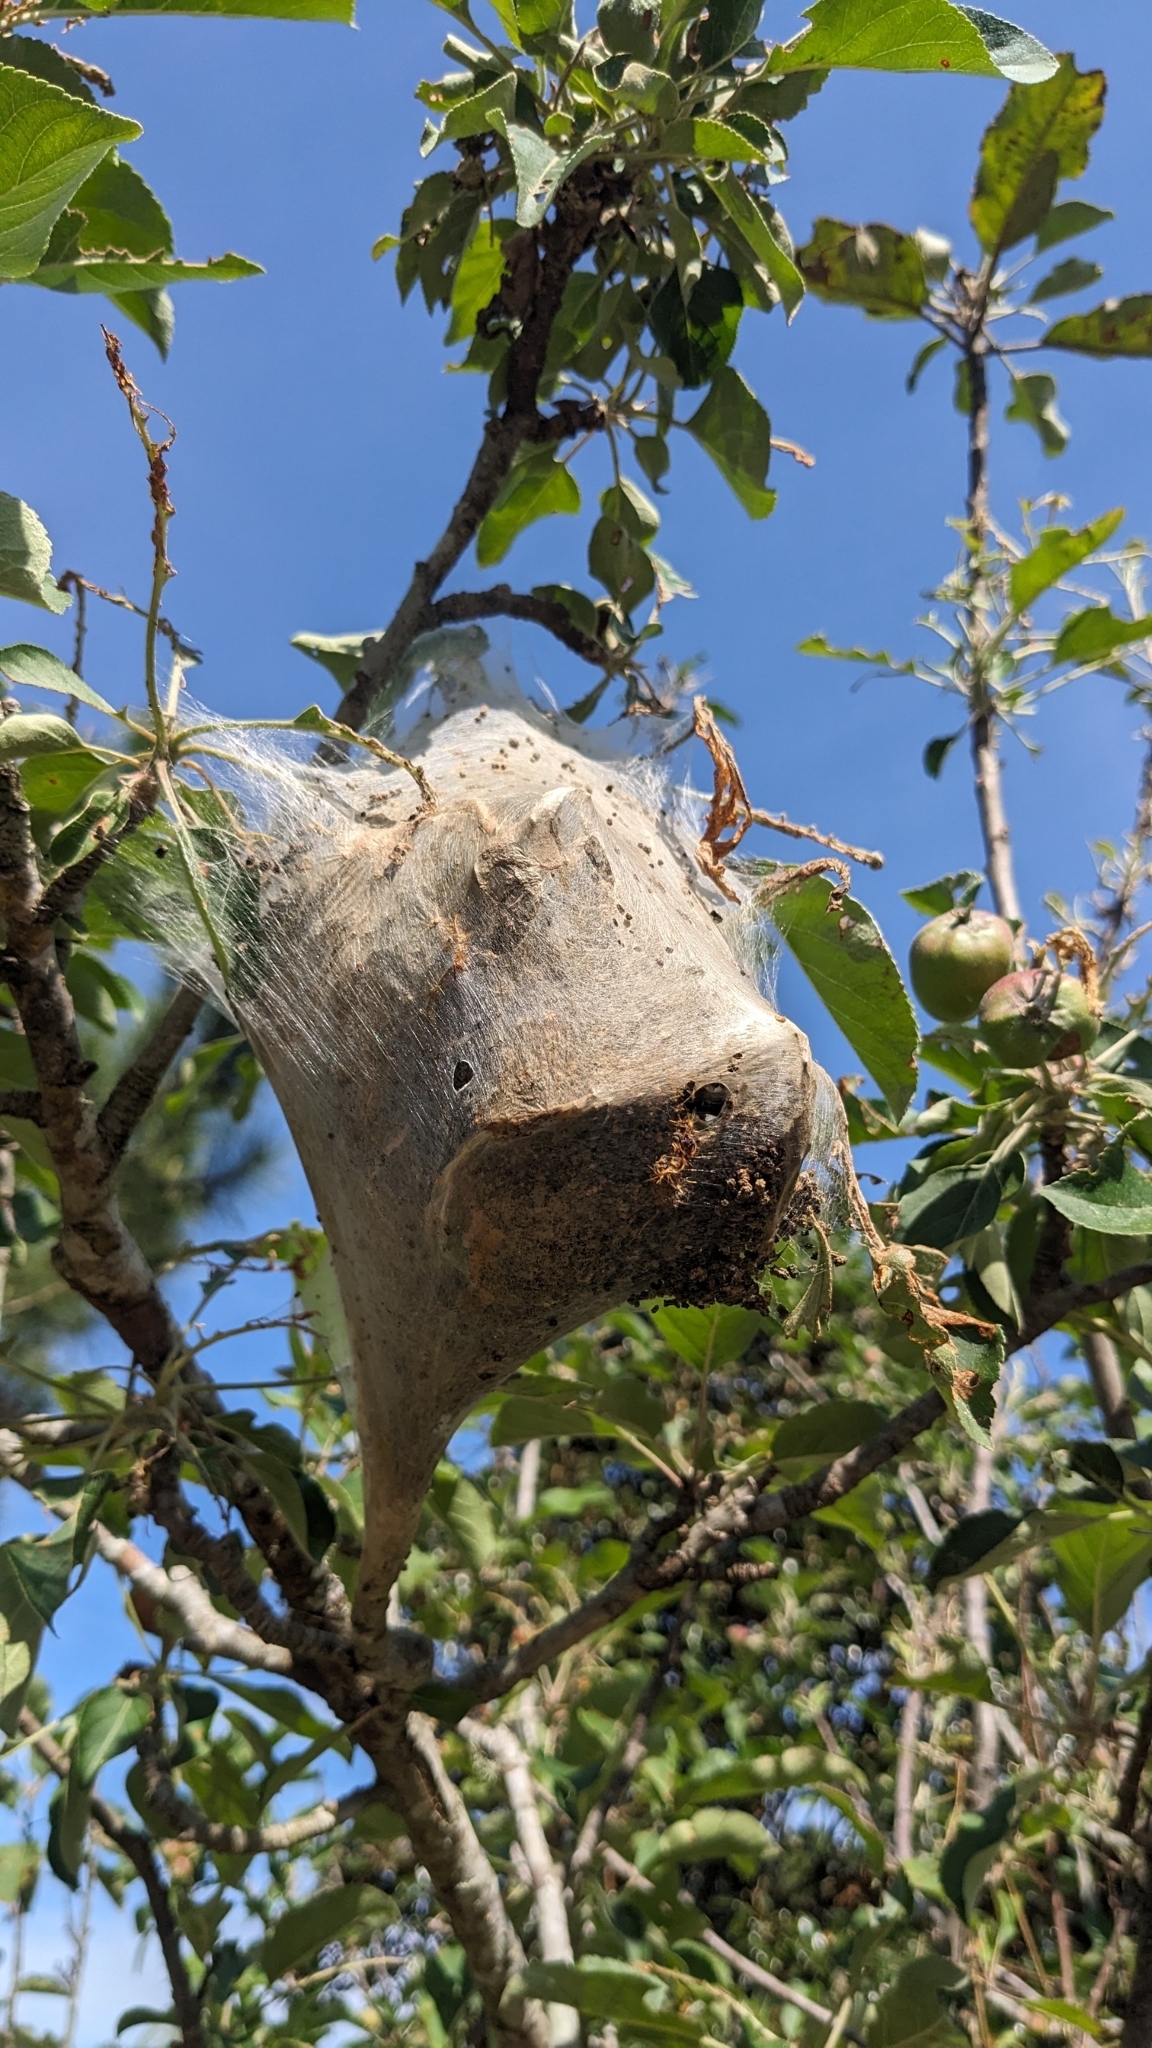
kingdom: Animalia
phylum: Arthropoda
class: Insecta
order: Lepidoptera
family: Lasiocampidae
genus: Malacosoma
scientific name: Malacosoma americana
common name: Eastern tent caterpillar moth
